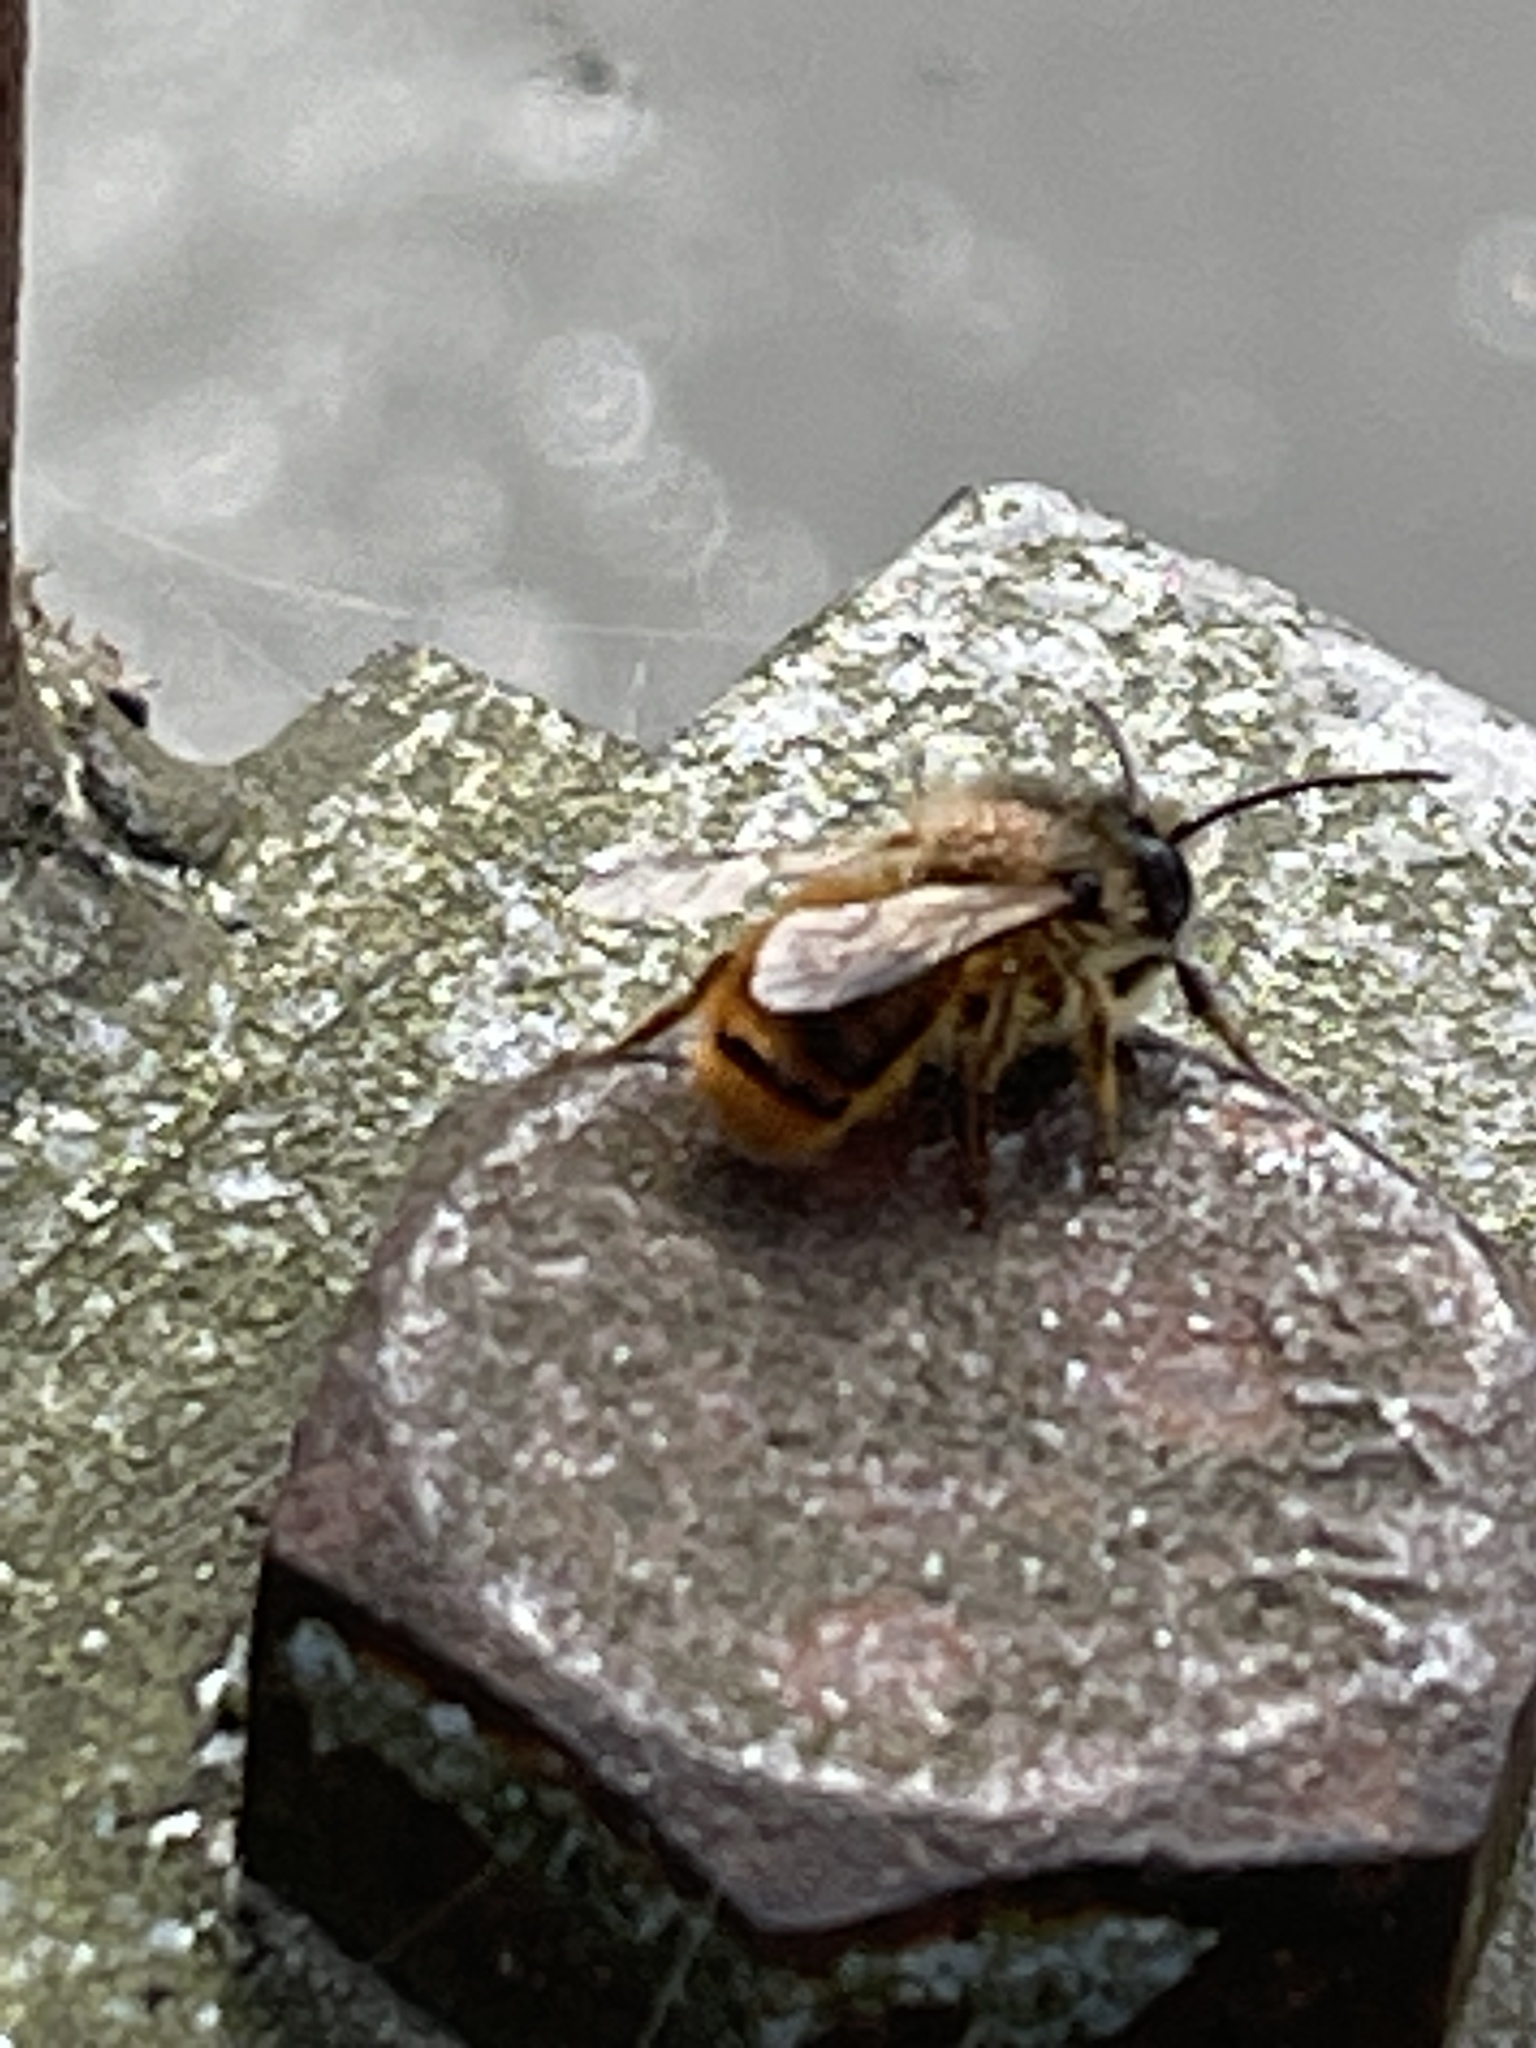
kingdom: Animalia
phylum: Arthropoda
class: Insecta
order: Hymenoptera
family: Megachilidae
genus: Osmia
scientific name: Osmia bicornis
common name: Red mason bee
